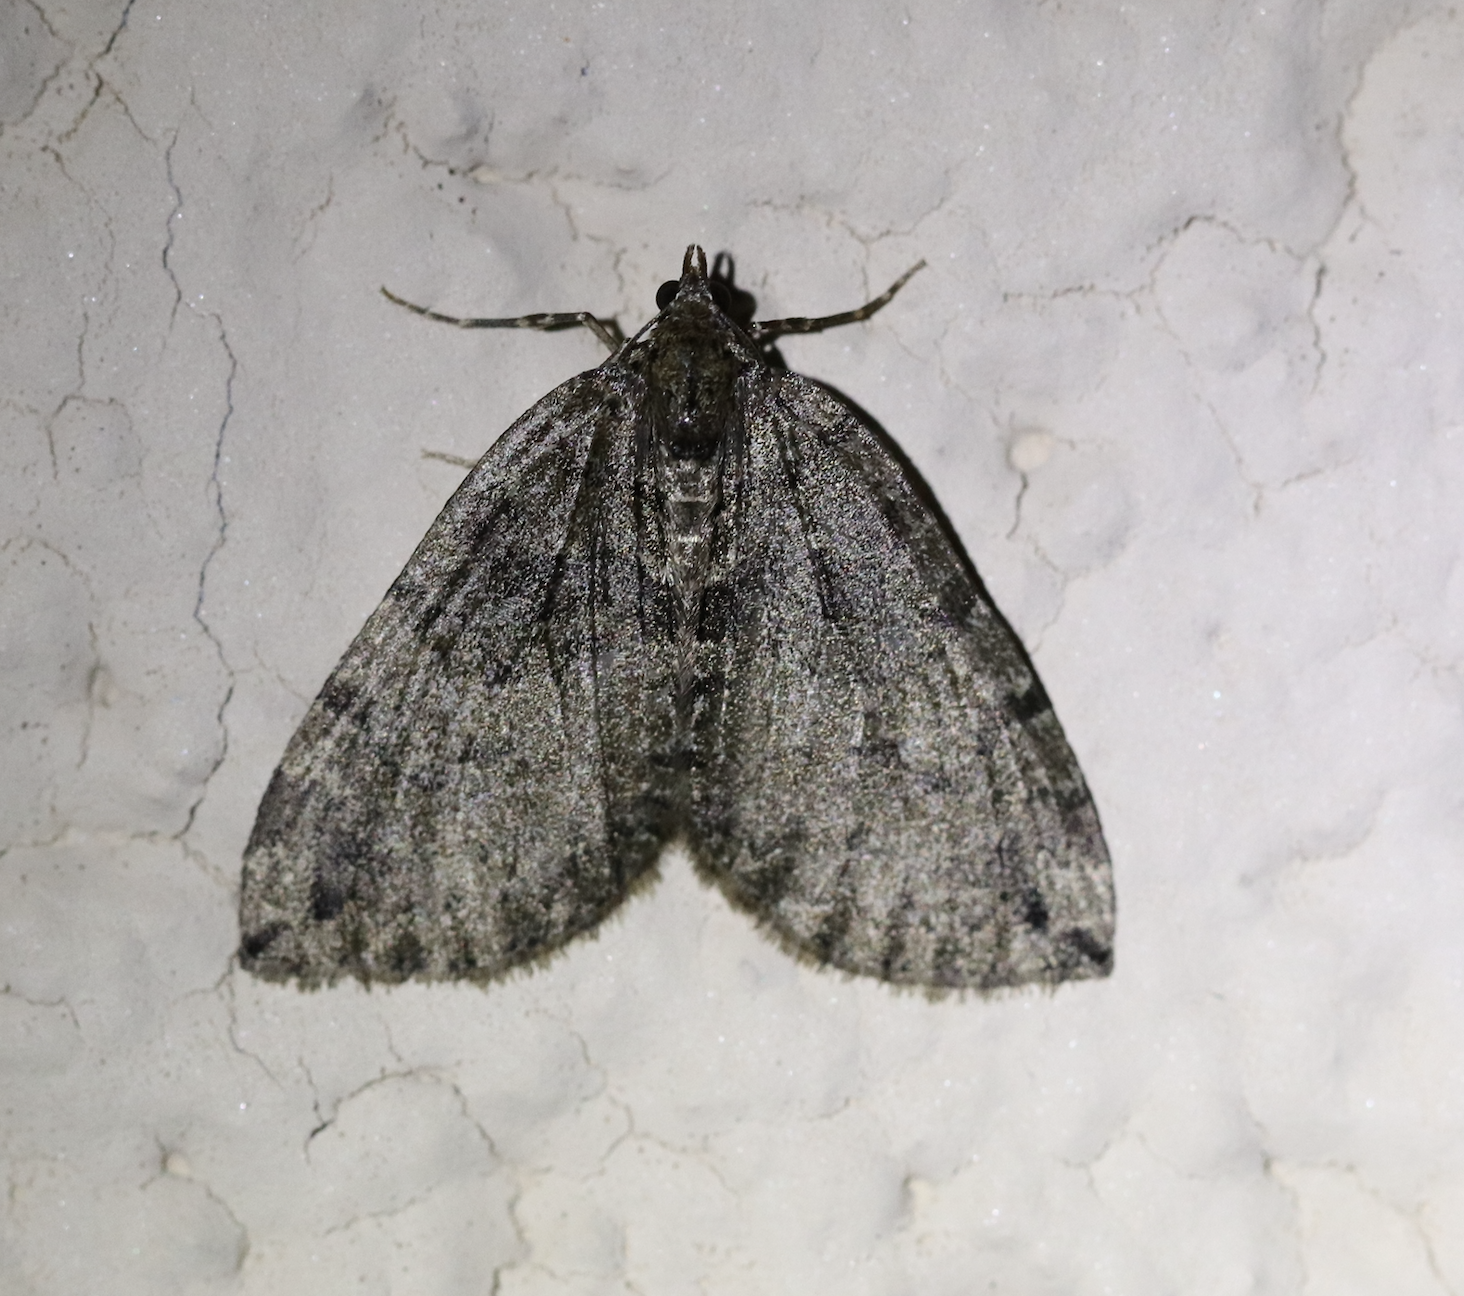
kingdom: Animalia
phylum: Arthropoda
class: Insecta
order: Lepidoptera
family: Geometridae
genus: Hydriomena
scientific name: Hydriomena furcata
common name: July highflyer
